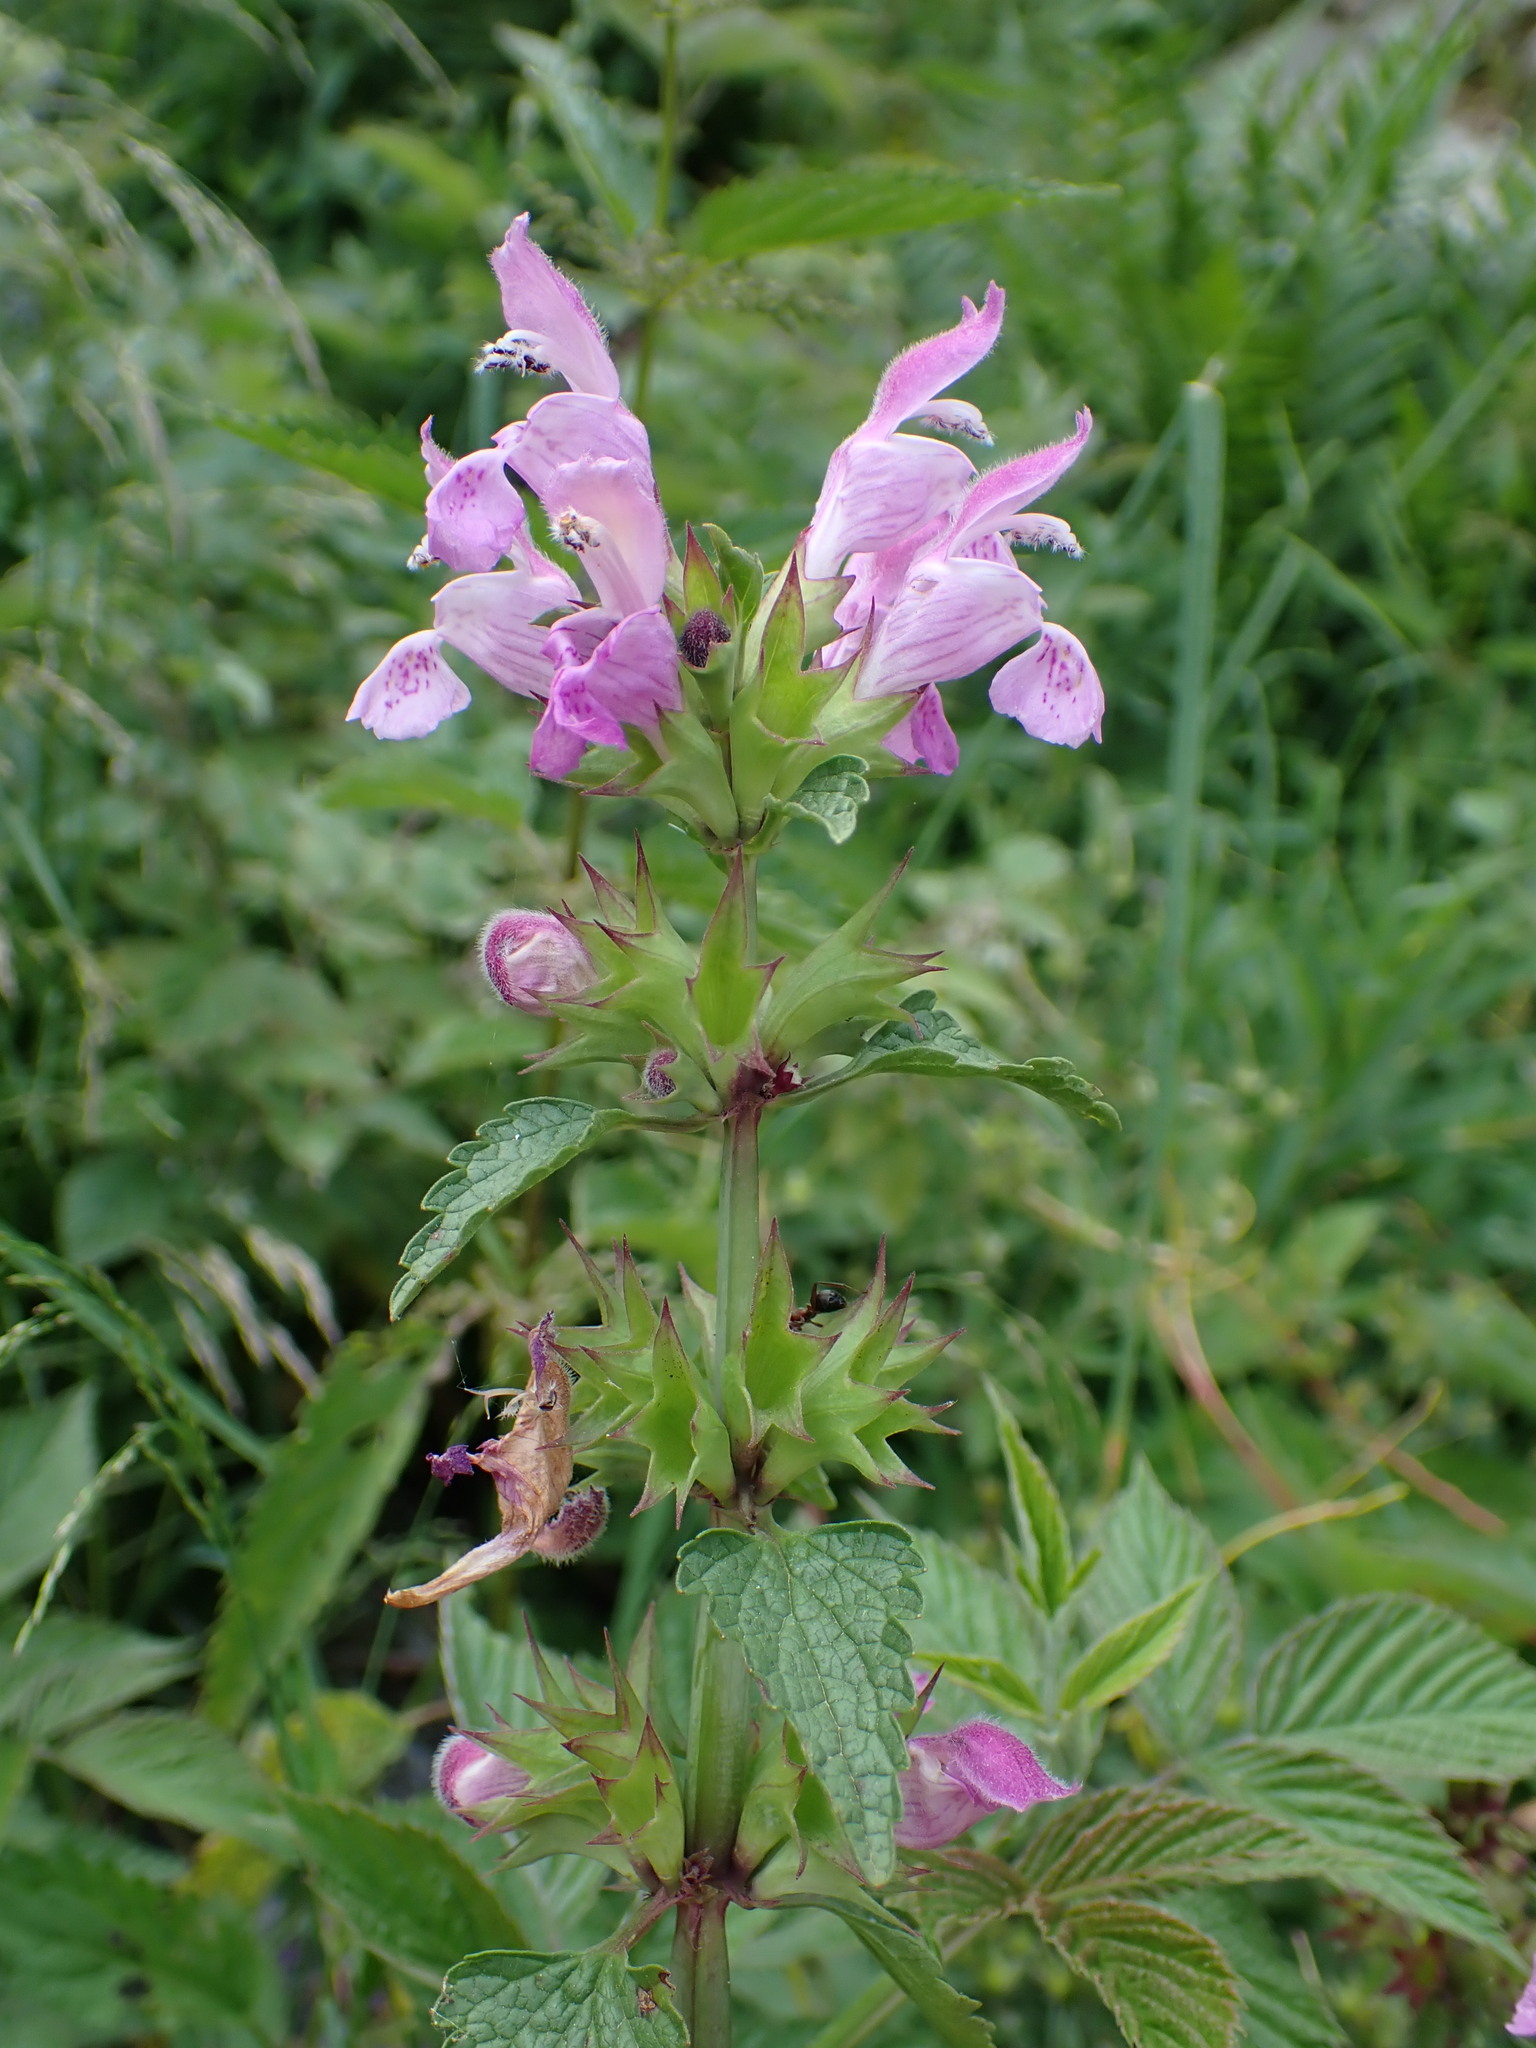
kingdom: Plantae
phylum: Tracheophyta
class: Magnoliopsida
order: Lamiales
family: Lamiaceae
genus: Lamium
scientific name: Lamium garganicum
